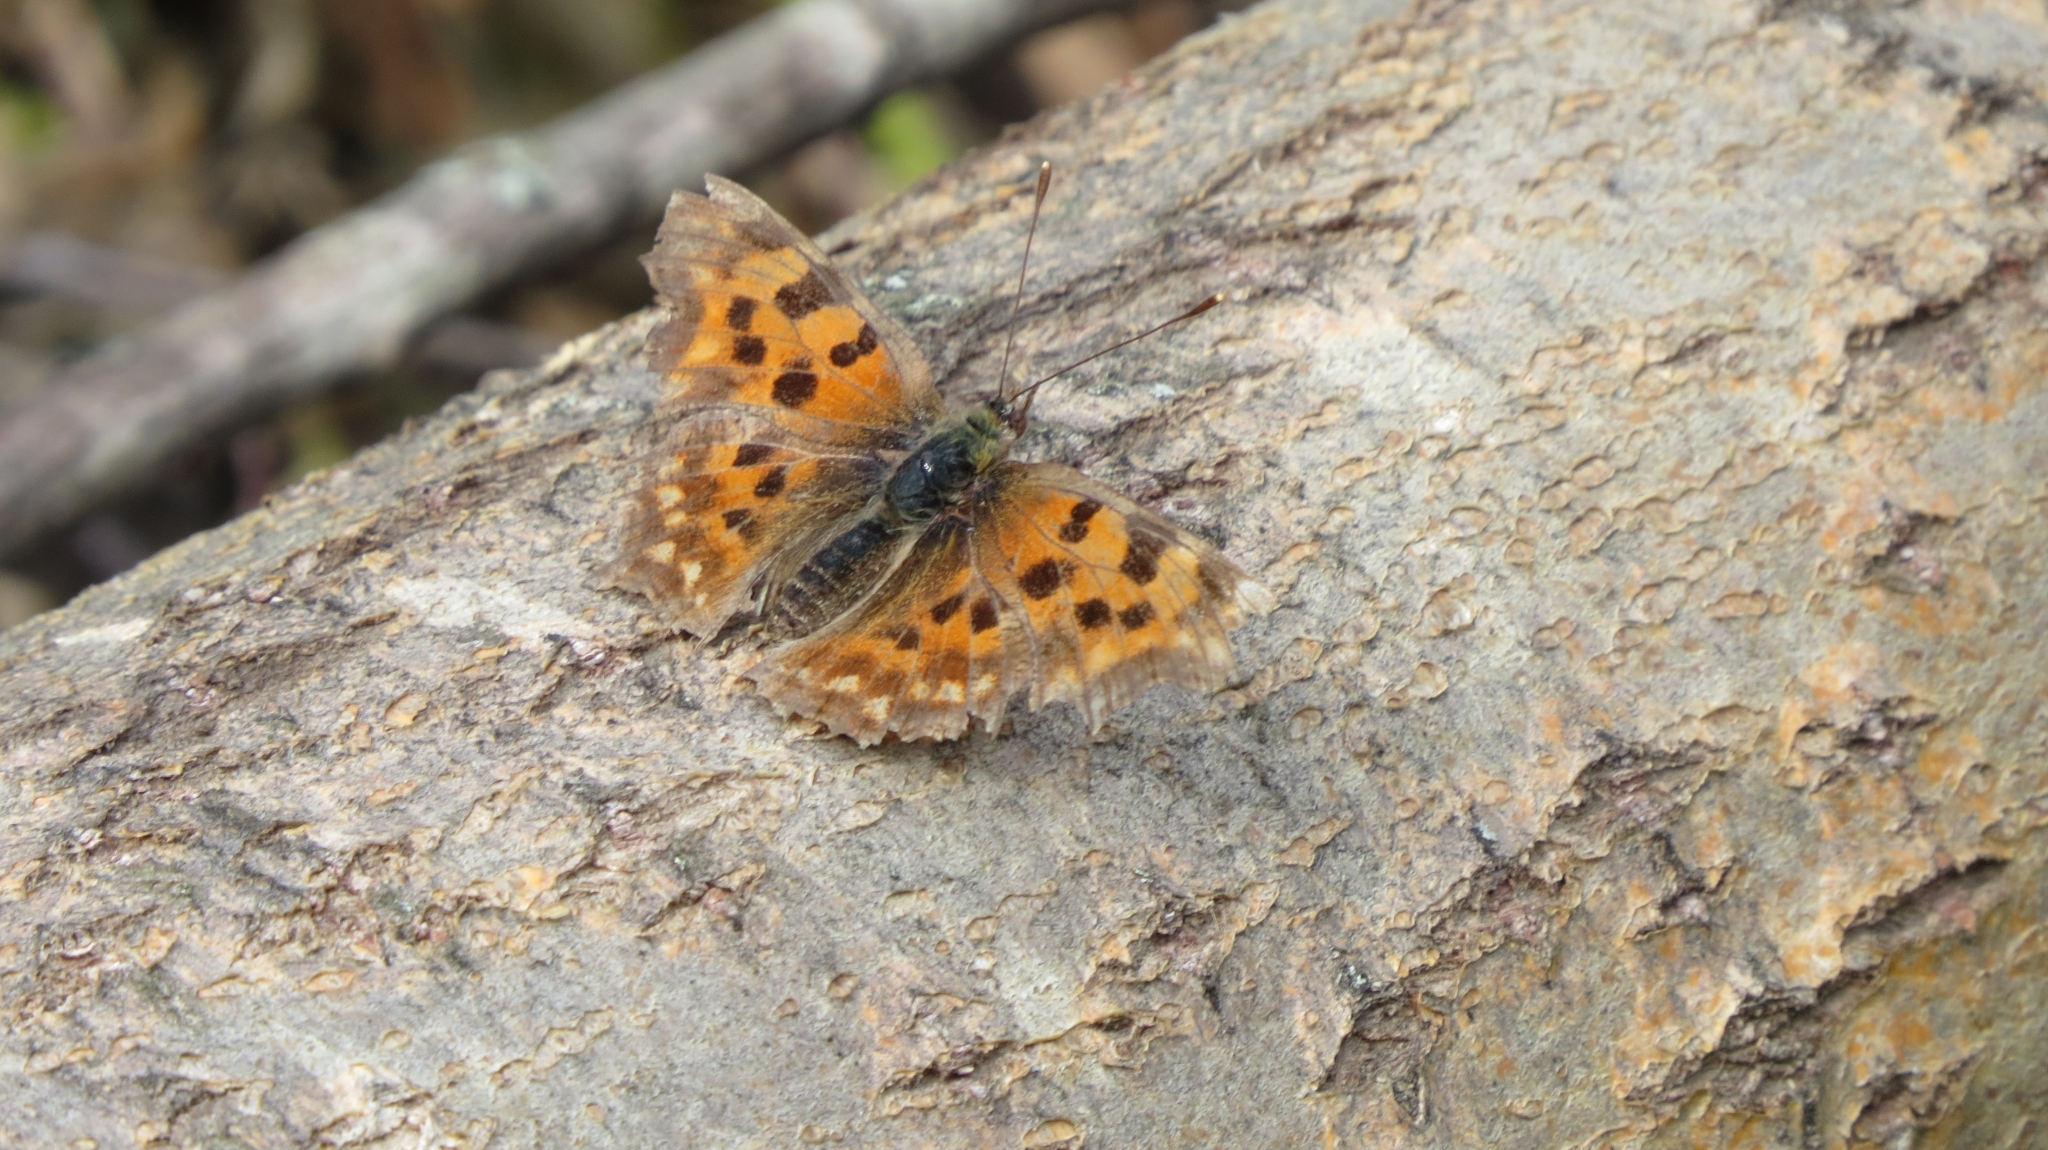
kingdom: Animalia
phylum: Arthropoda
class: Insecta
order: Lepidoptera
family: Nymphalidae
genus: Polygonia
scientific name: Polygonia c-album
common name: Comma
